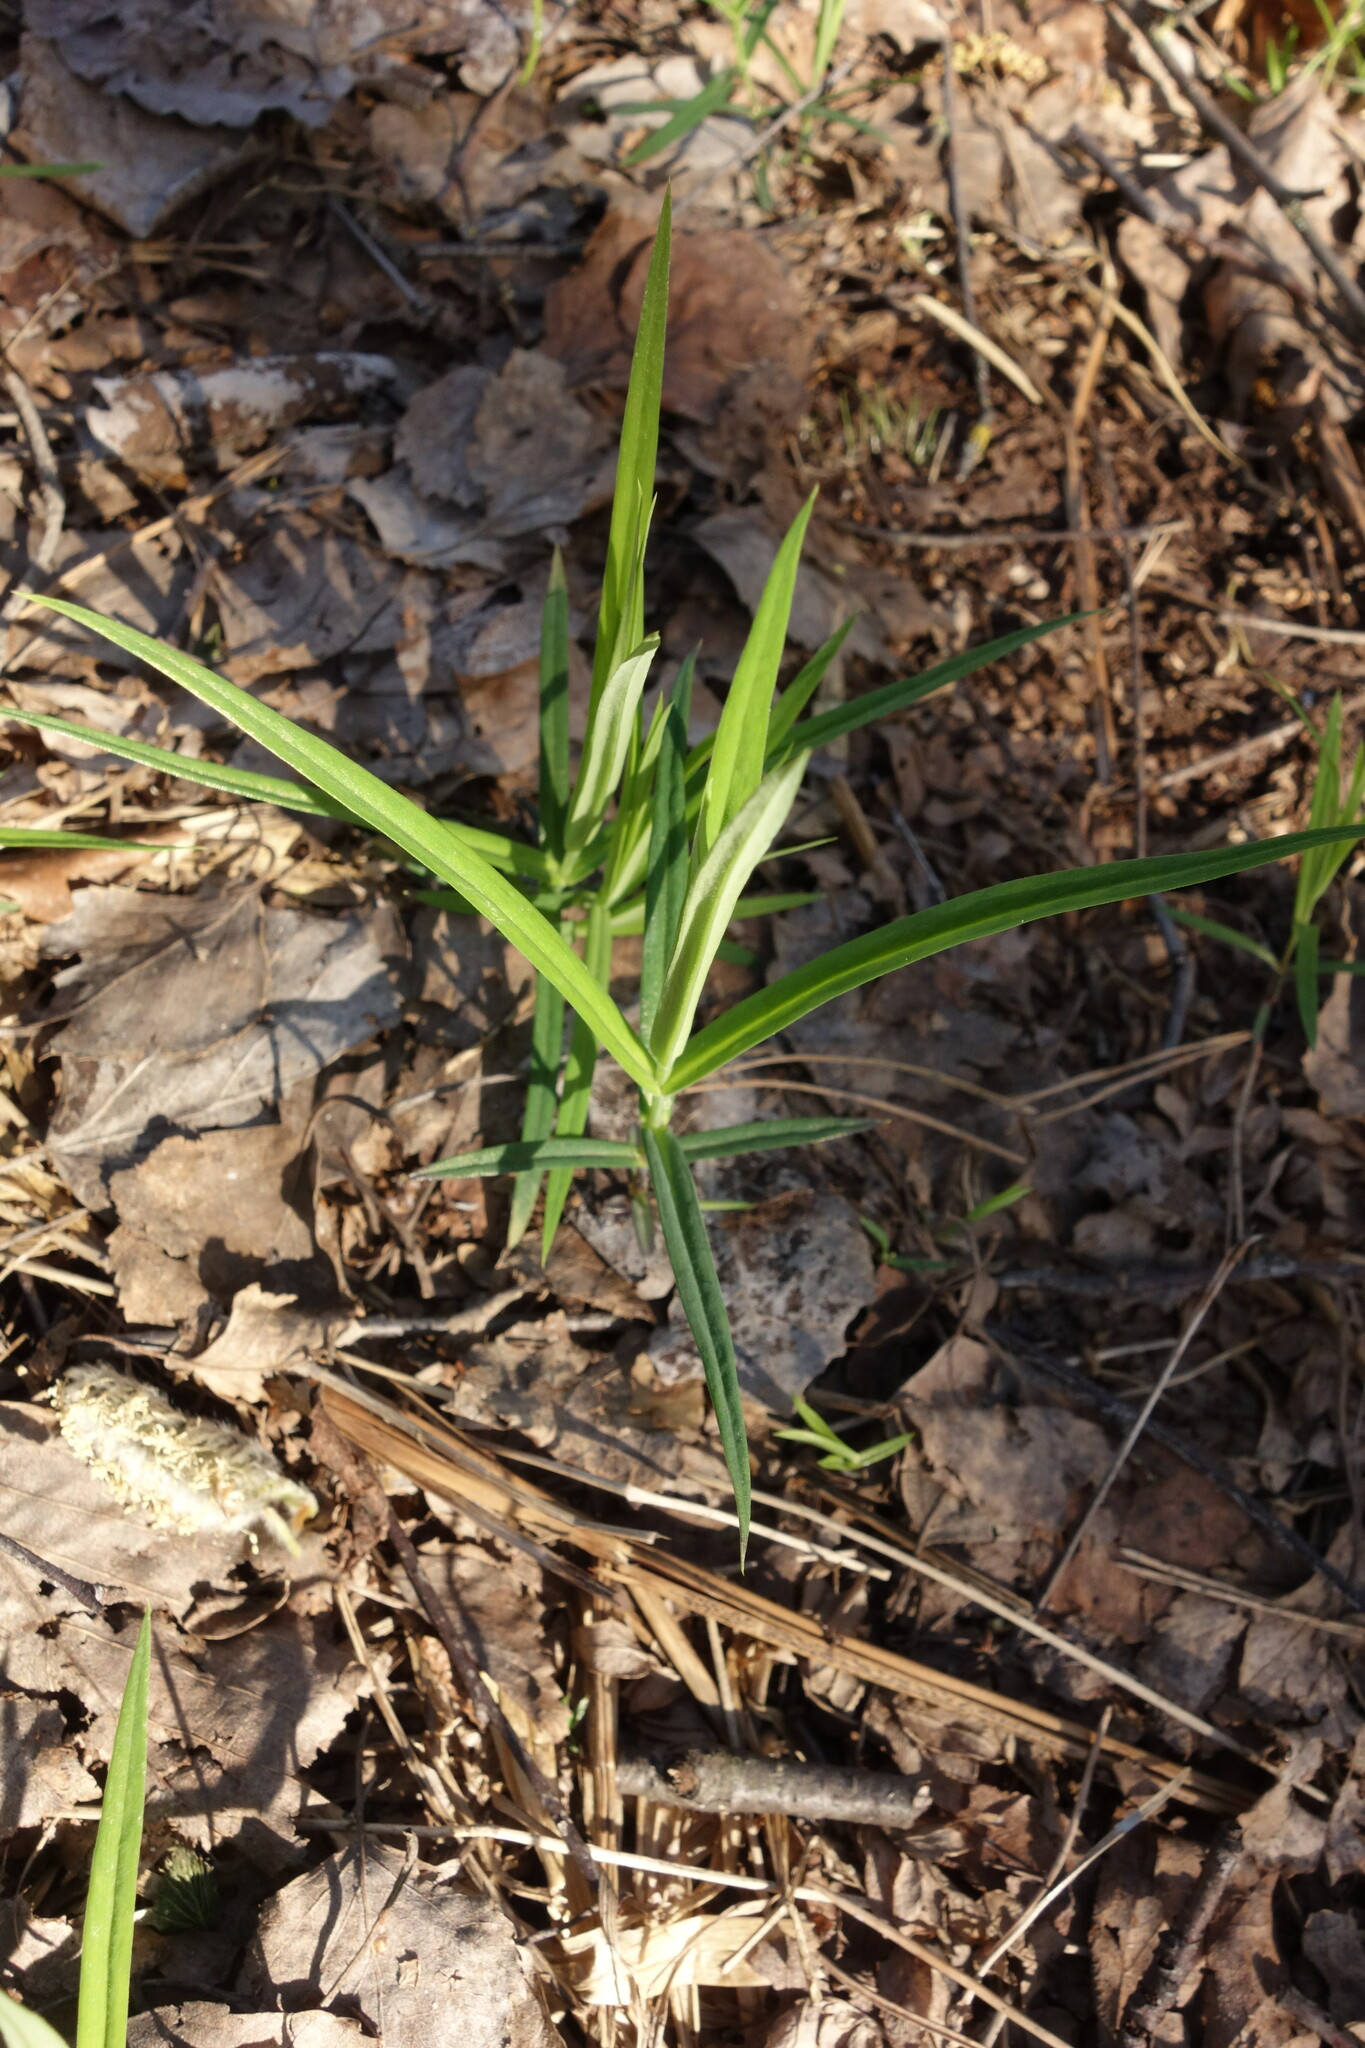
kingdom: Plantae
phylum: Tracheophyta
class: Magnoliopsida
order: Caryophyllales
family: Caryophyllaceae
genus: Rabelera
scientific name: Rabelera holostea
